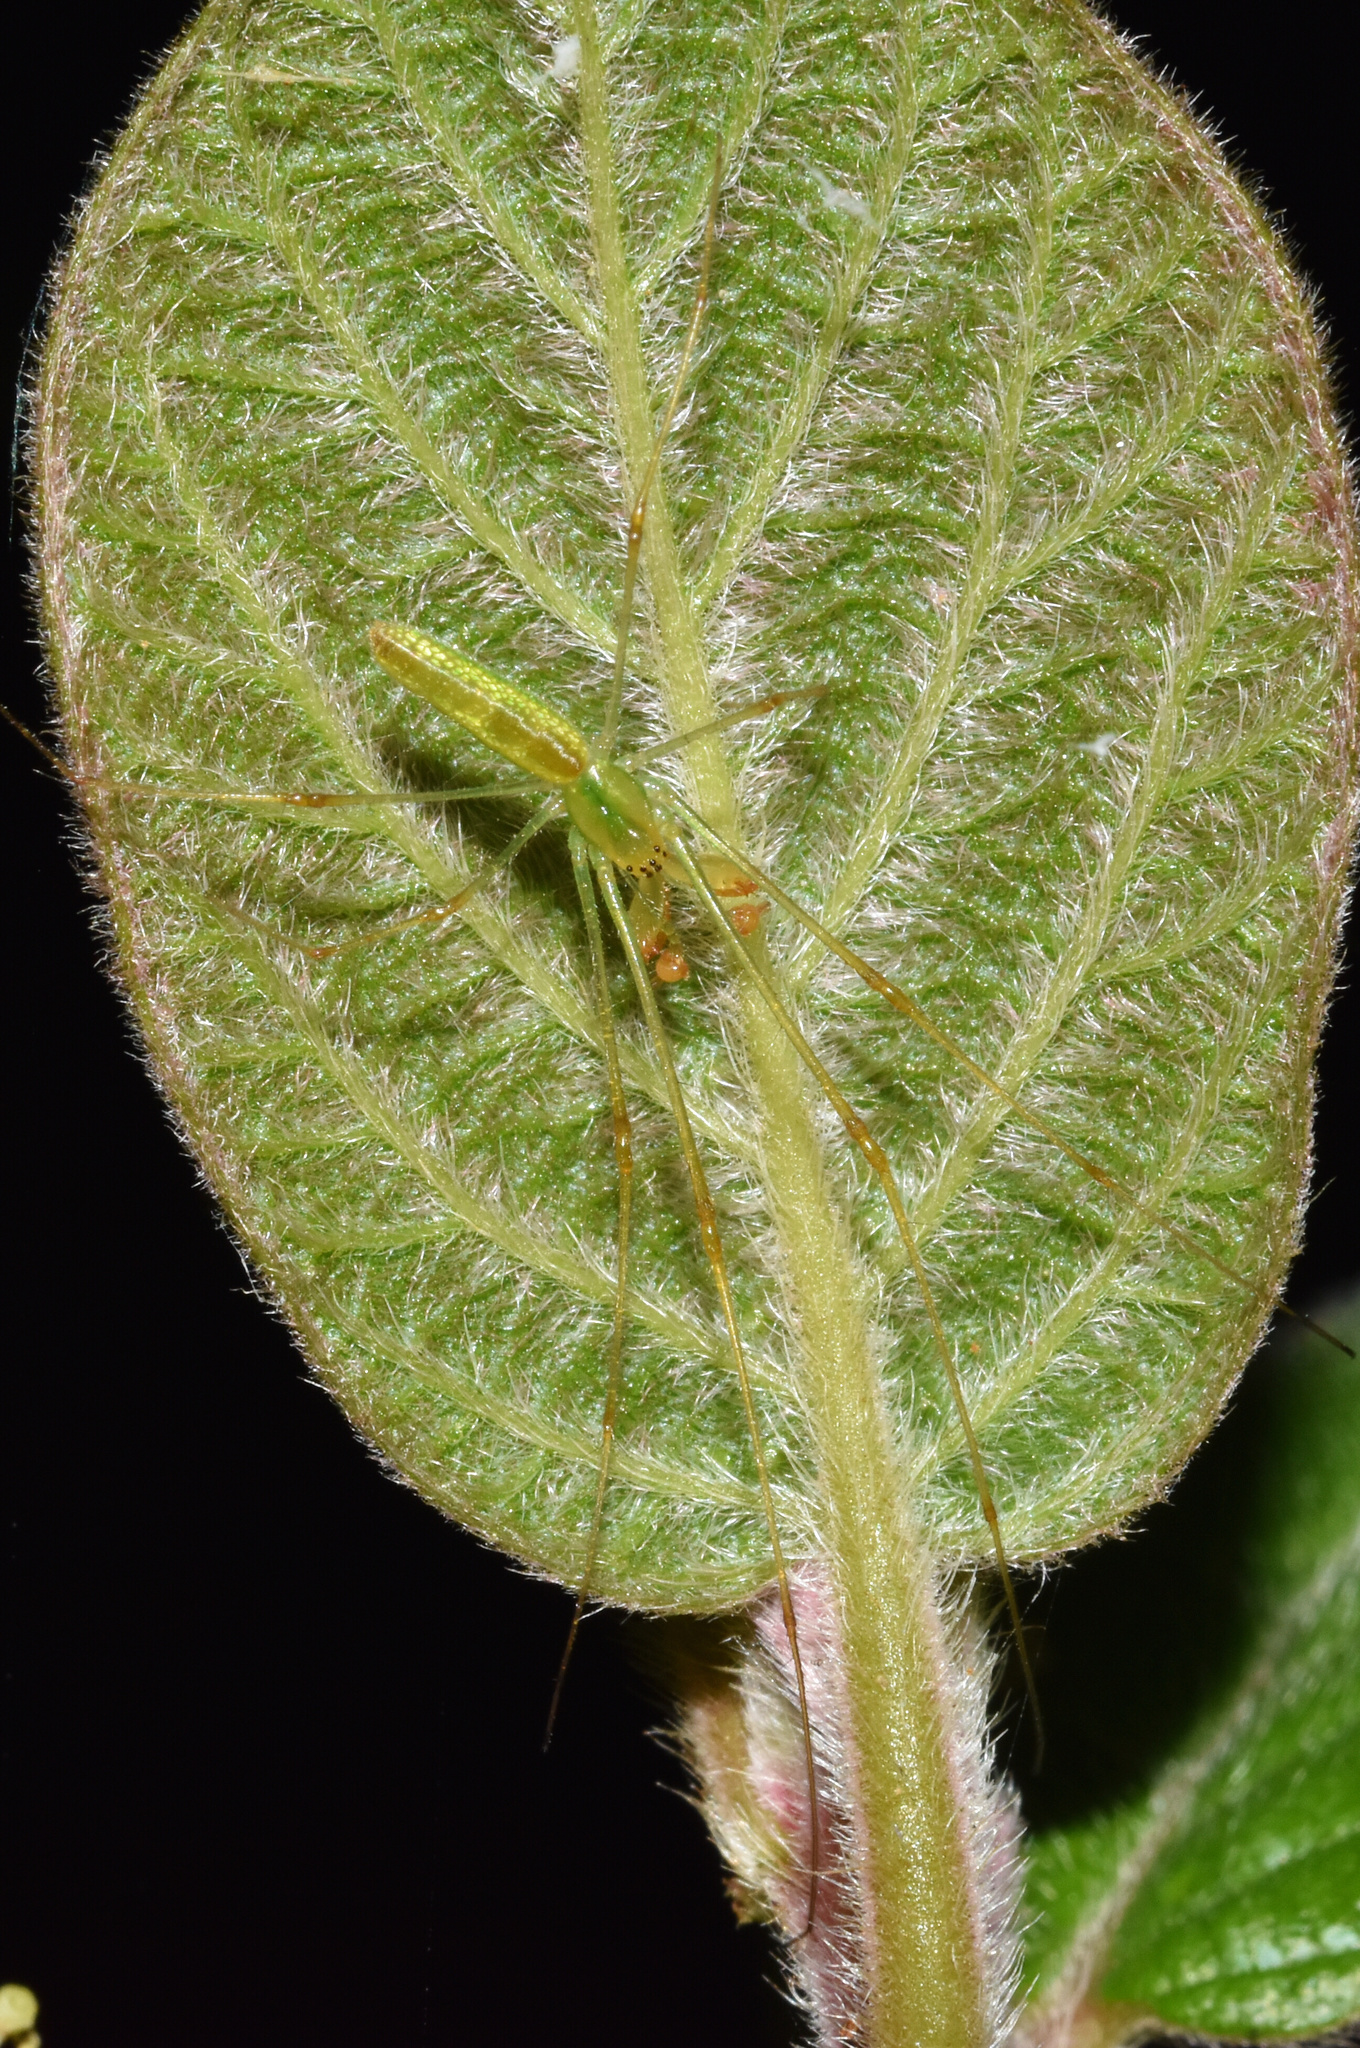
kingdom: Animalia
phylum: Arthropoda
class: Arachnida
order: Araneae
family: Tetragnathidae
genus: Tetragnatha
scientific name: Tetragnatha subsquamata
